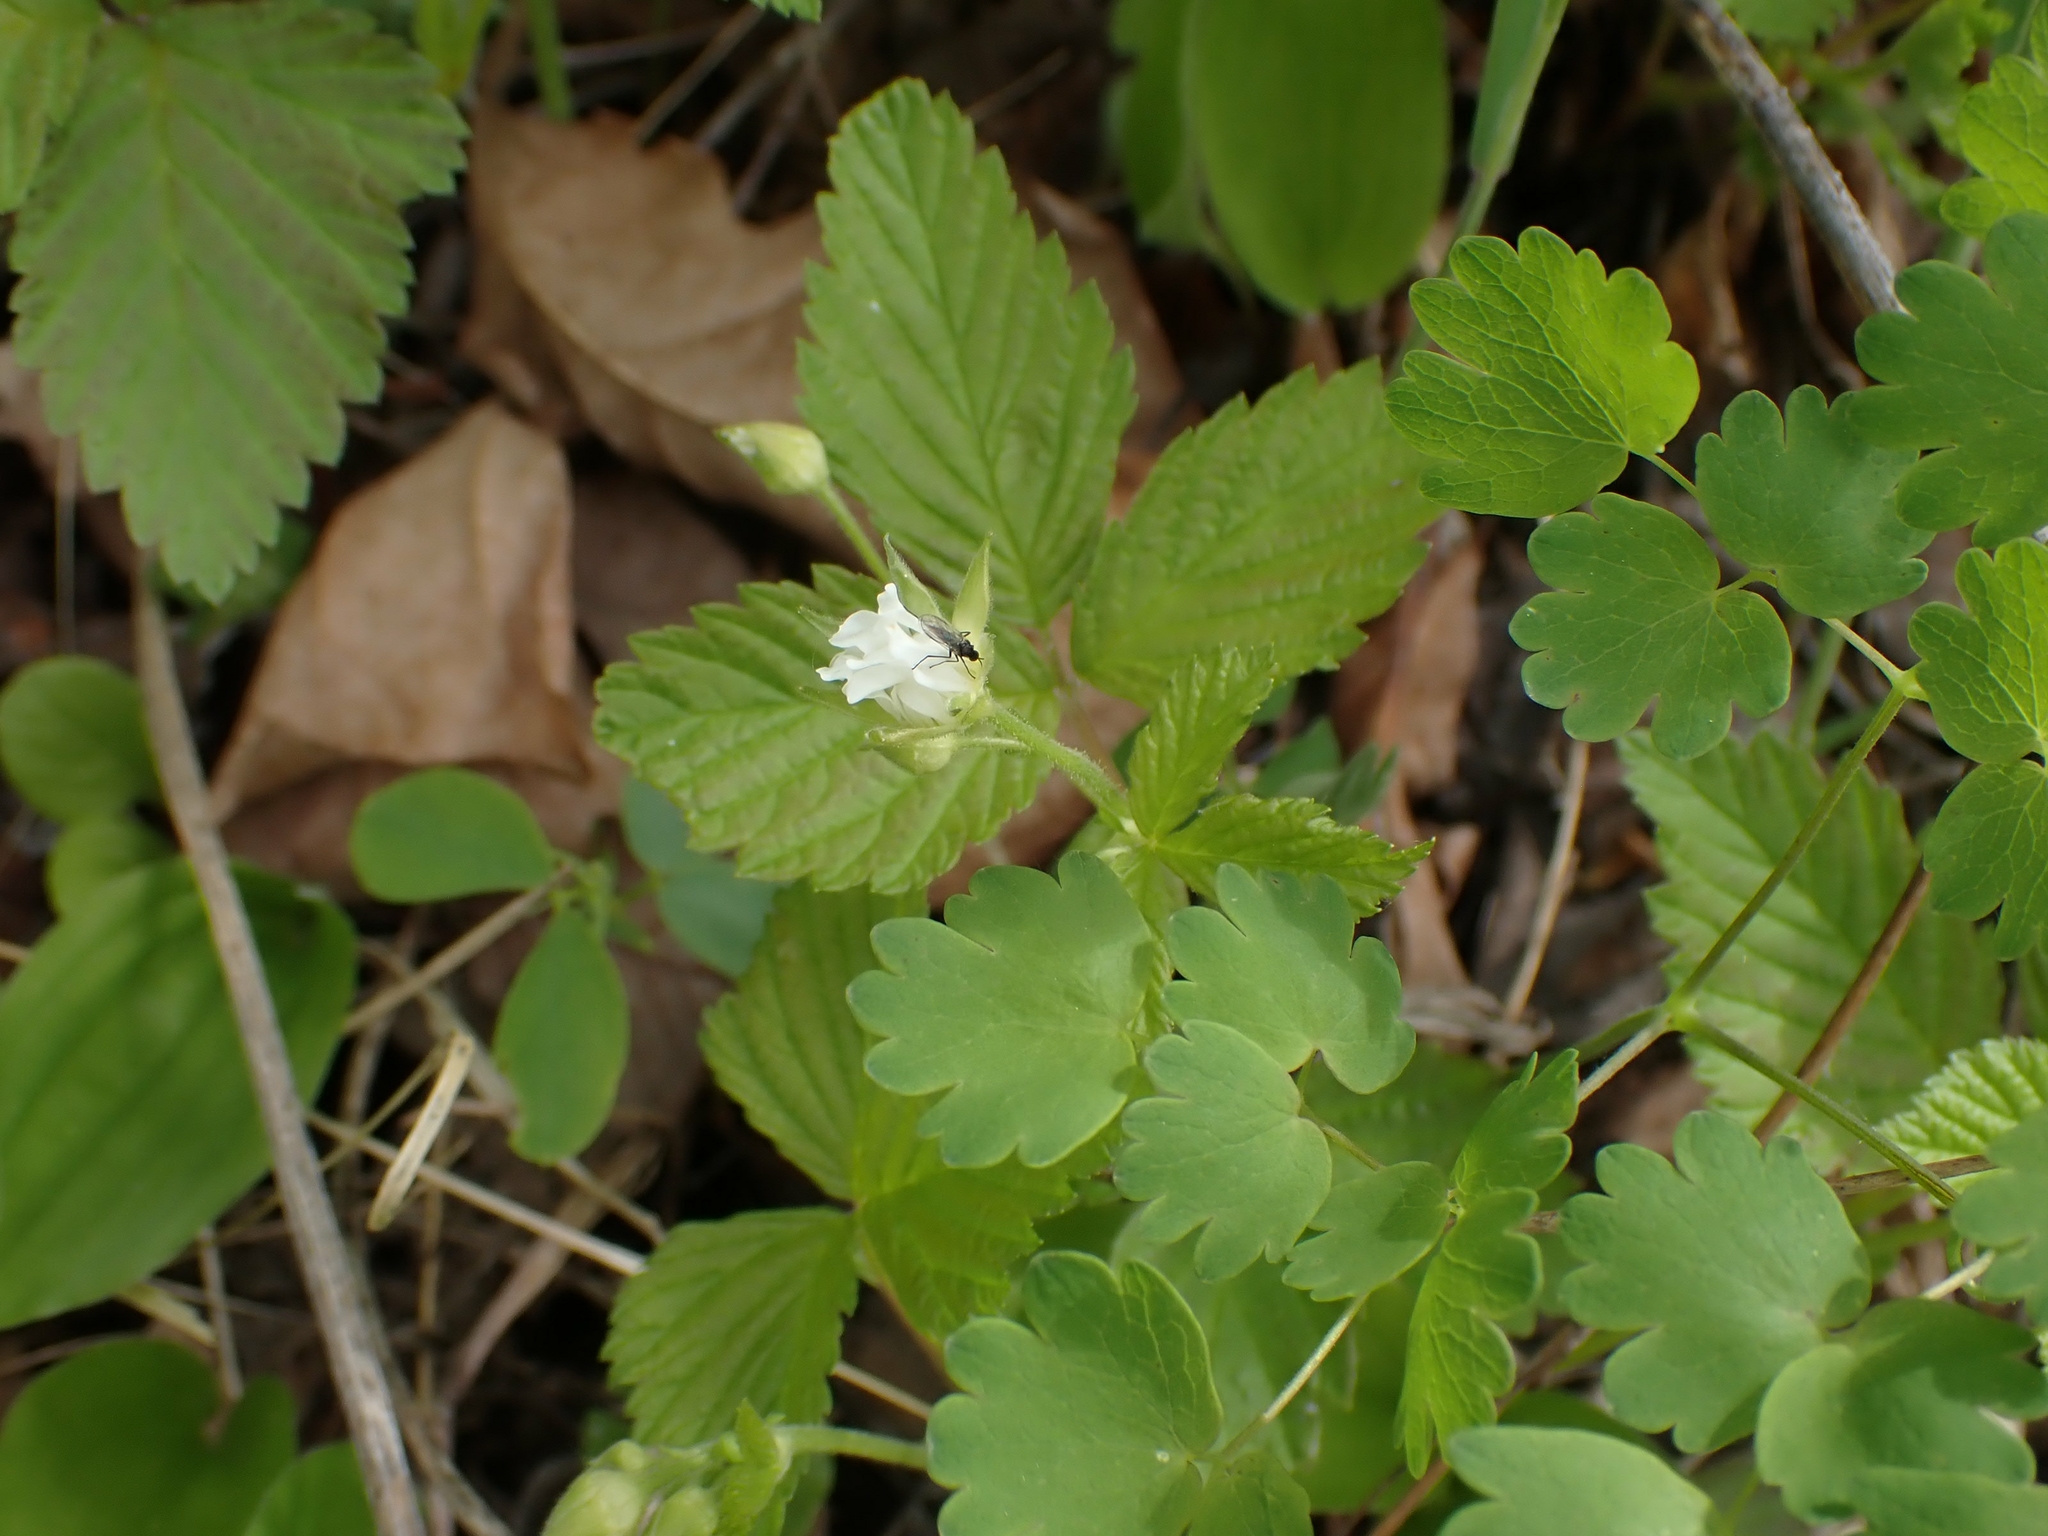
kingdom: Plantae
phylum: Tracheophyta
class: Magnoliopsida
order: Rosales
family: Rosaceae
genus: Rubus
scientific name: Rubus pubescens
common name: Dwarf raspberry
